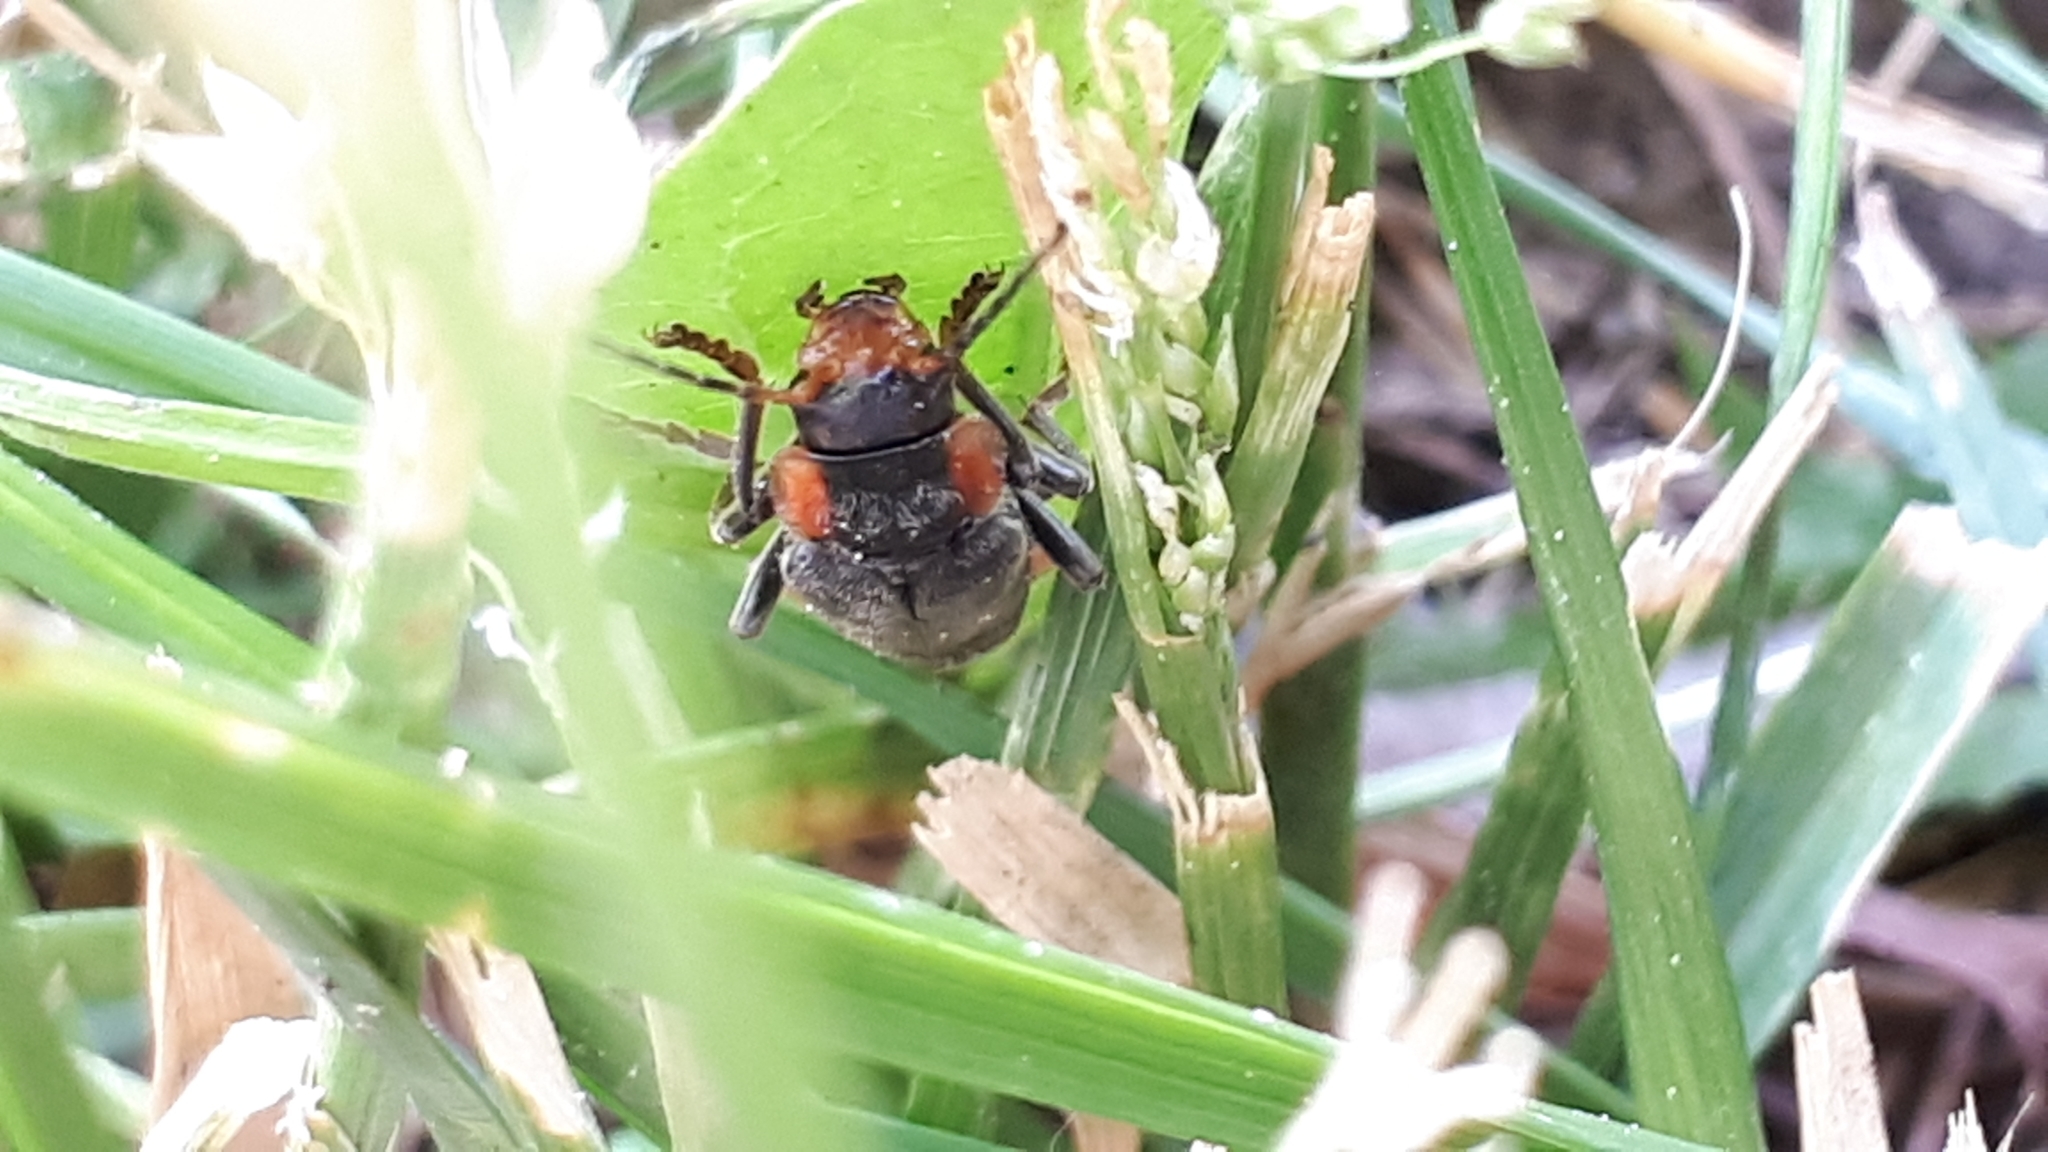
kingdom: Animalia
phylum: Arthropoda
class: Insecta
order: Coleoptera
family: Cantharidae
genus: Cantharis
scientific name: Cantharis fusca
